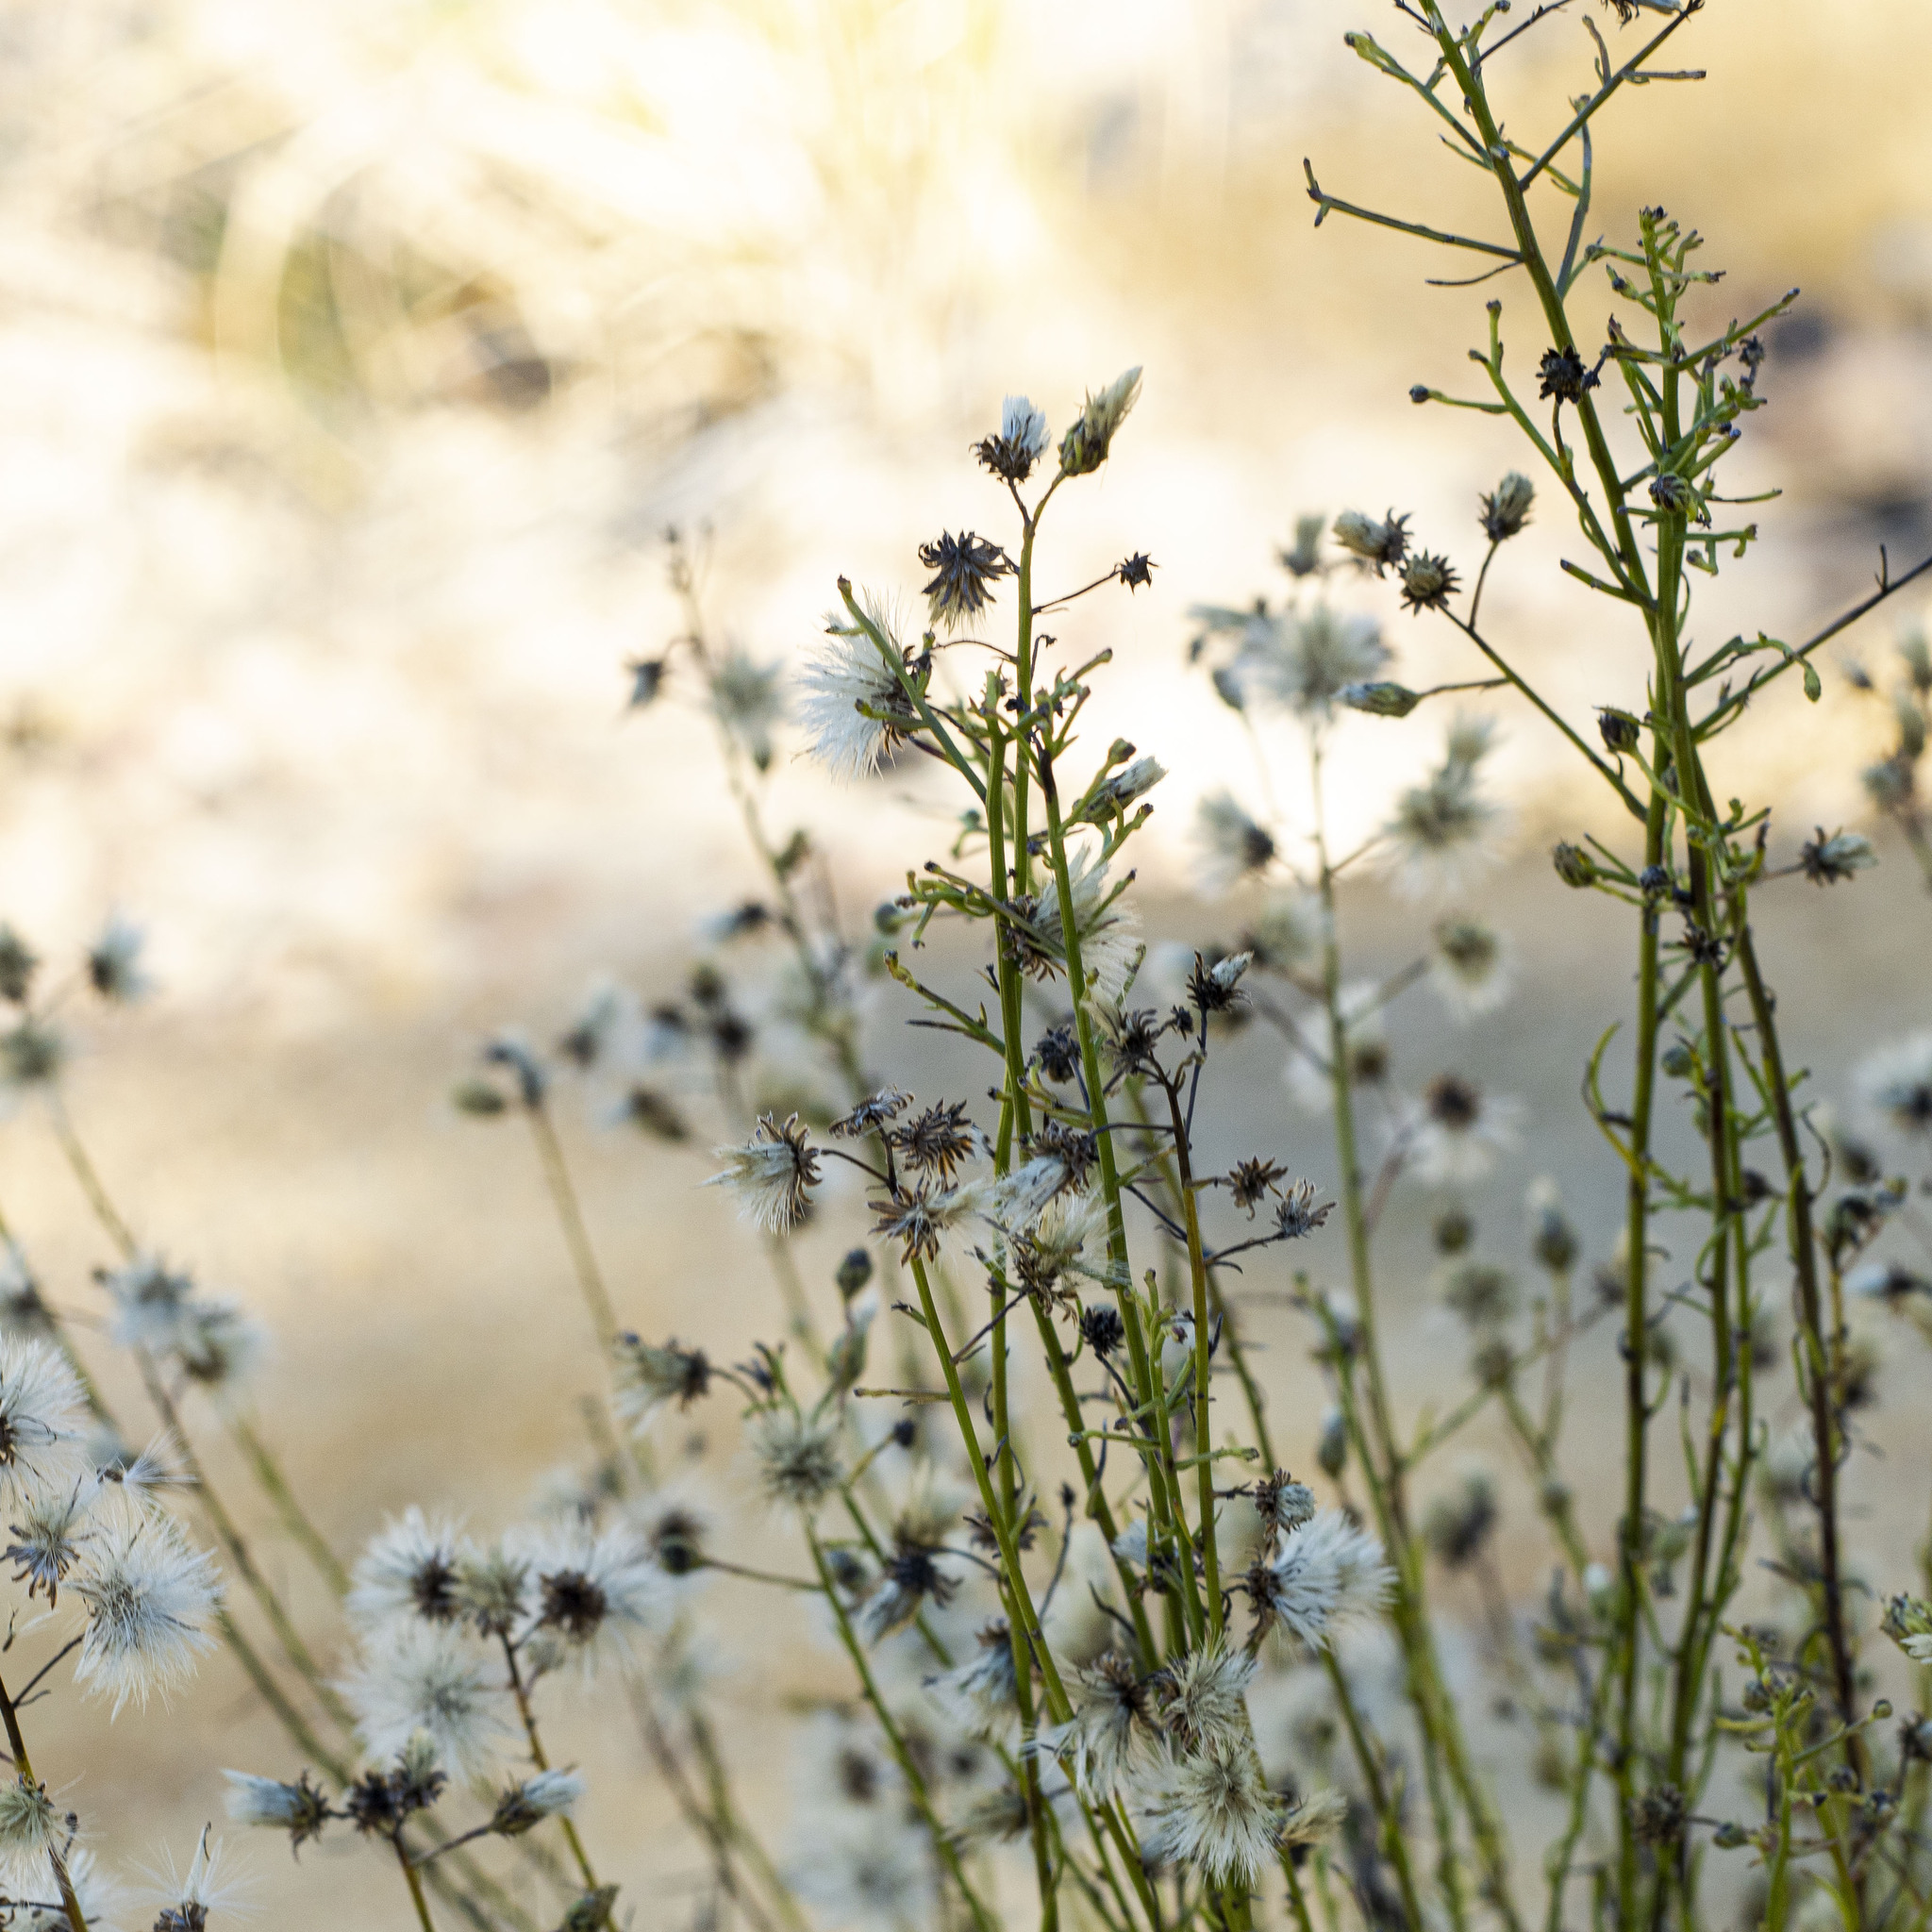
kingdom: Plantae
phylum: Tracheophyta
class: Magnoliopsida
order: Asterales
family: Asteraceae
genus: Baccharis
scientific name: Baccharis vanessae
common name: Encinitas baccharis
